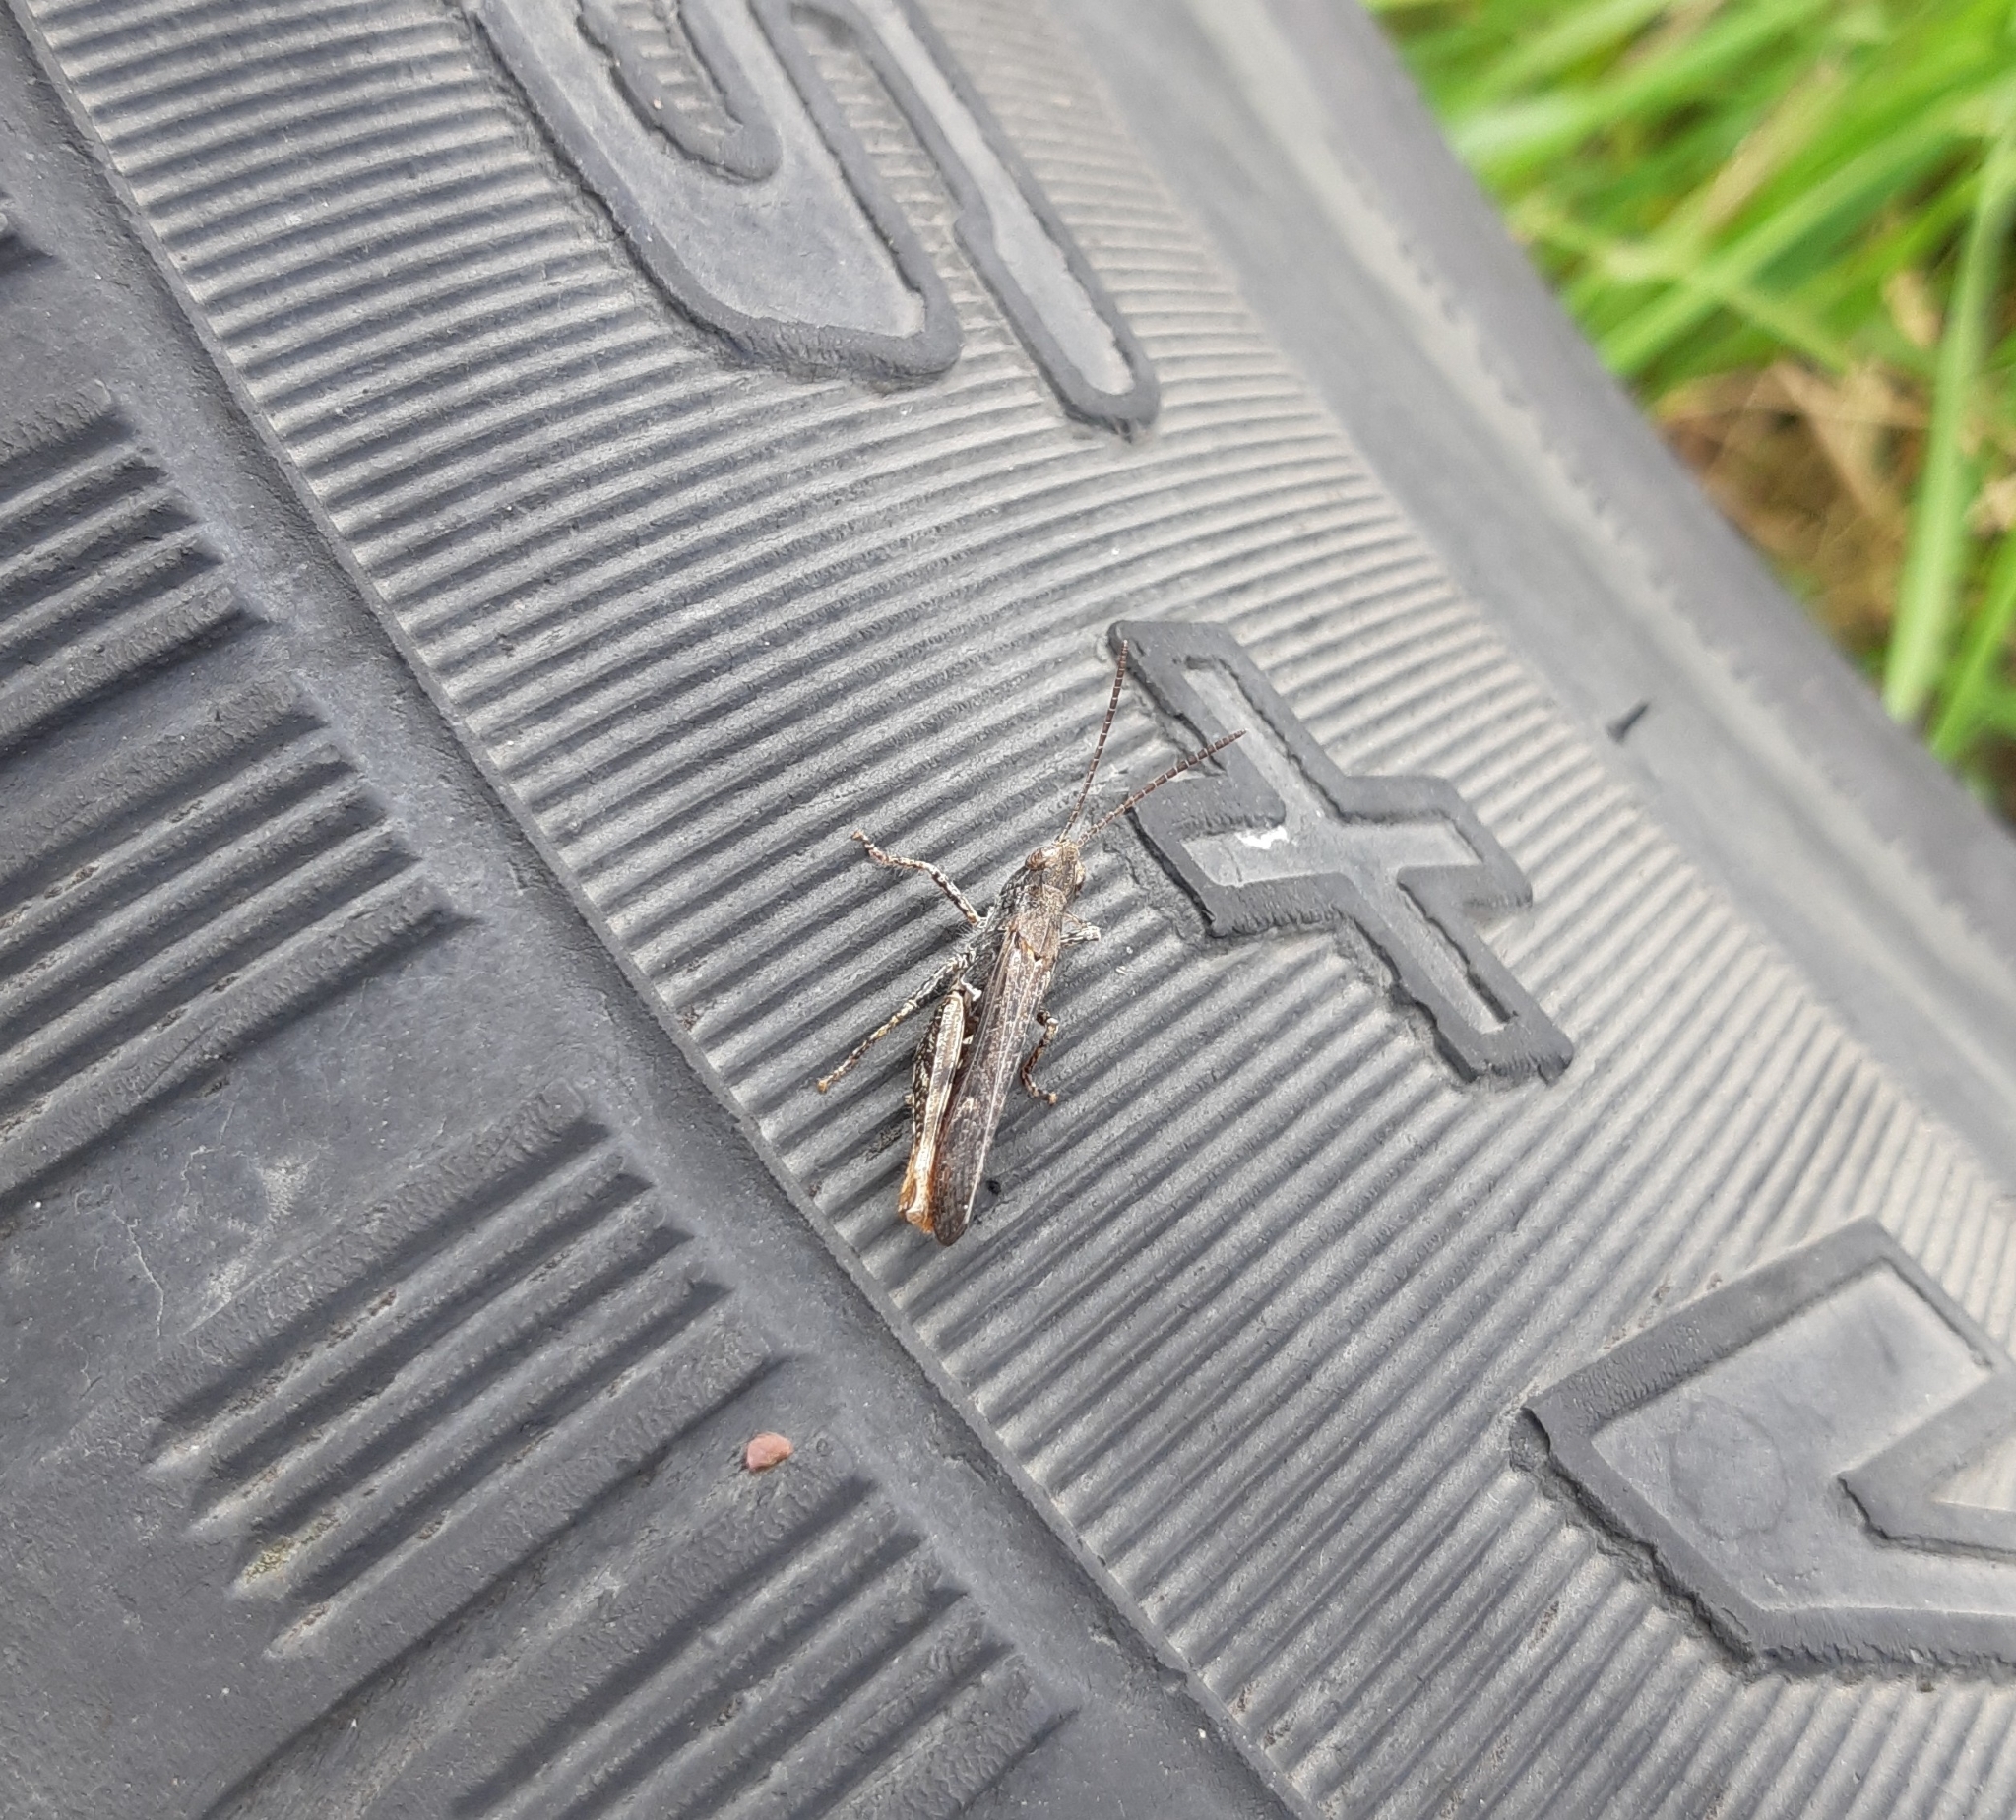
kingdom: Animalia
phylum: Arthropoda
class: Insecta
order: Orthoptera
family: Acrididae
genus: Chorthippus
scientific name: Chorthippus brunneus
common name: Field grasshopper
